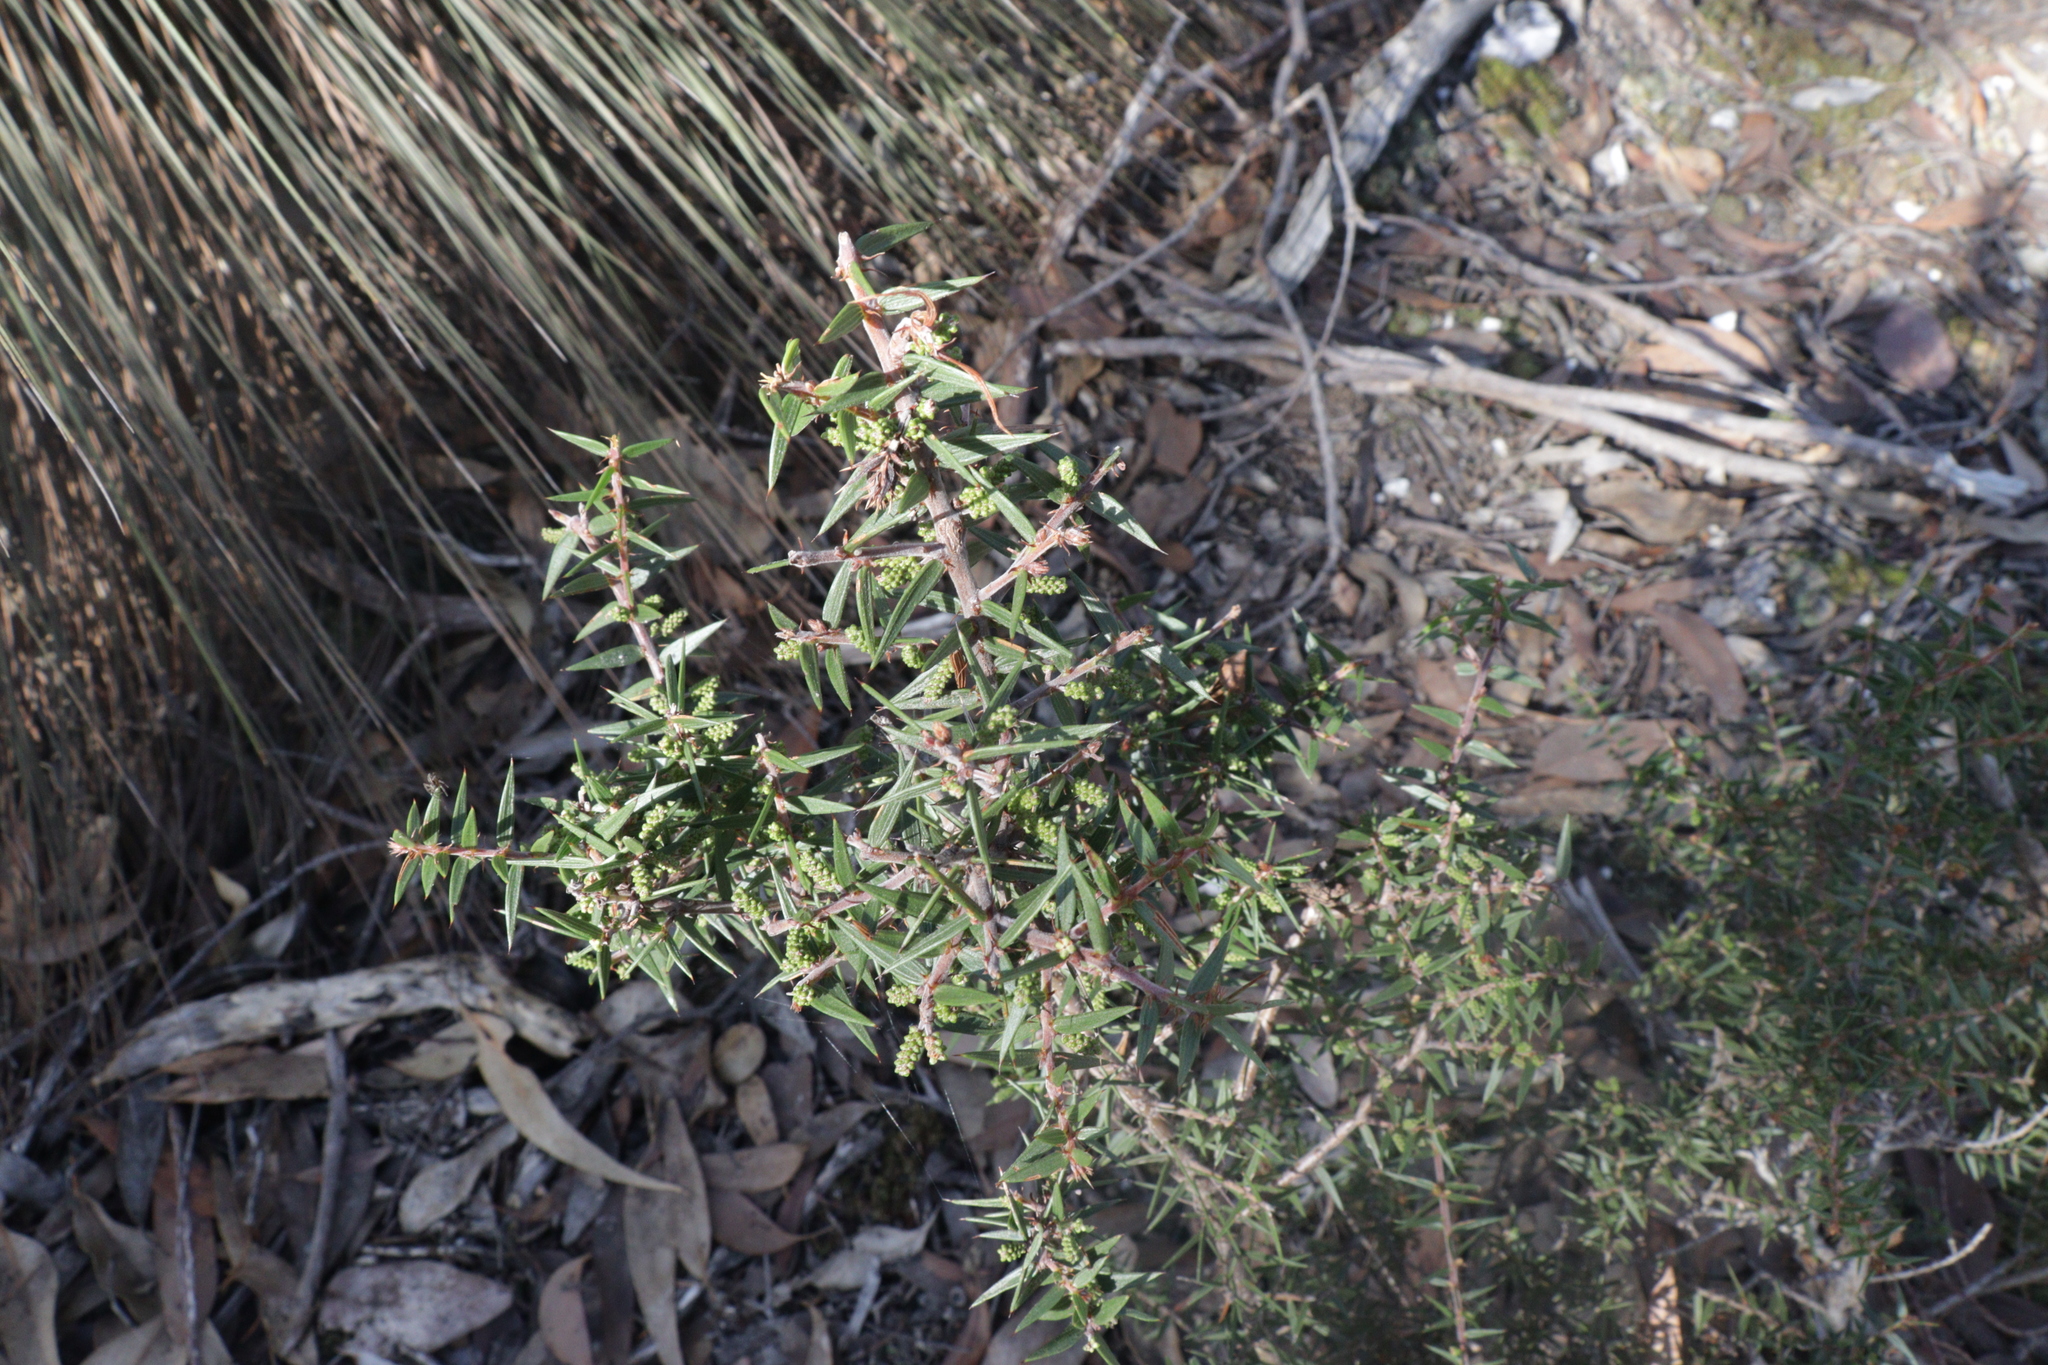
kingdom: Plantae
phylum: Tracheophyta
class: Magnoliopsida
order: Fabales
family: Fabaceae
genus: Acacia
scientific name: Acacia oxycedrus
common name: Spike wattle
